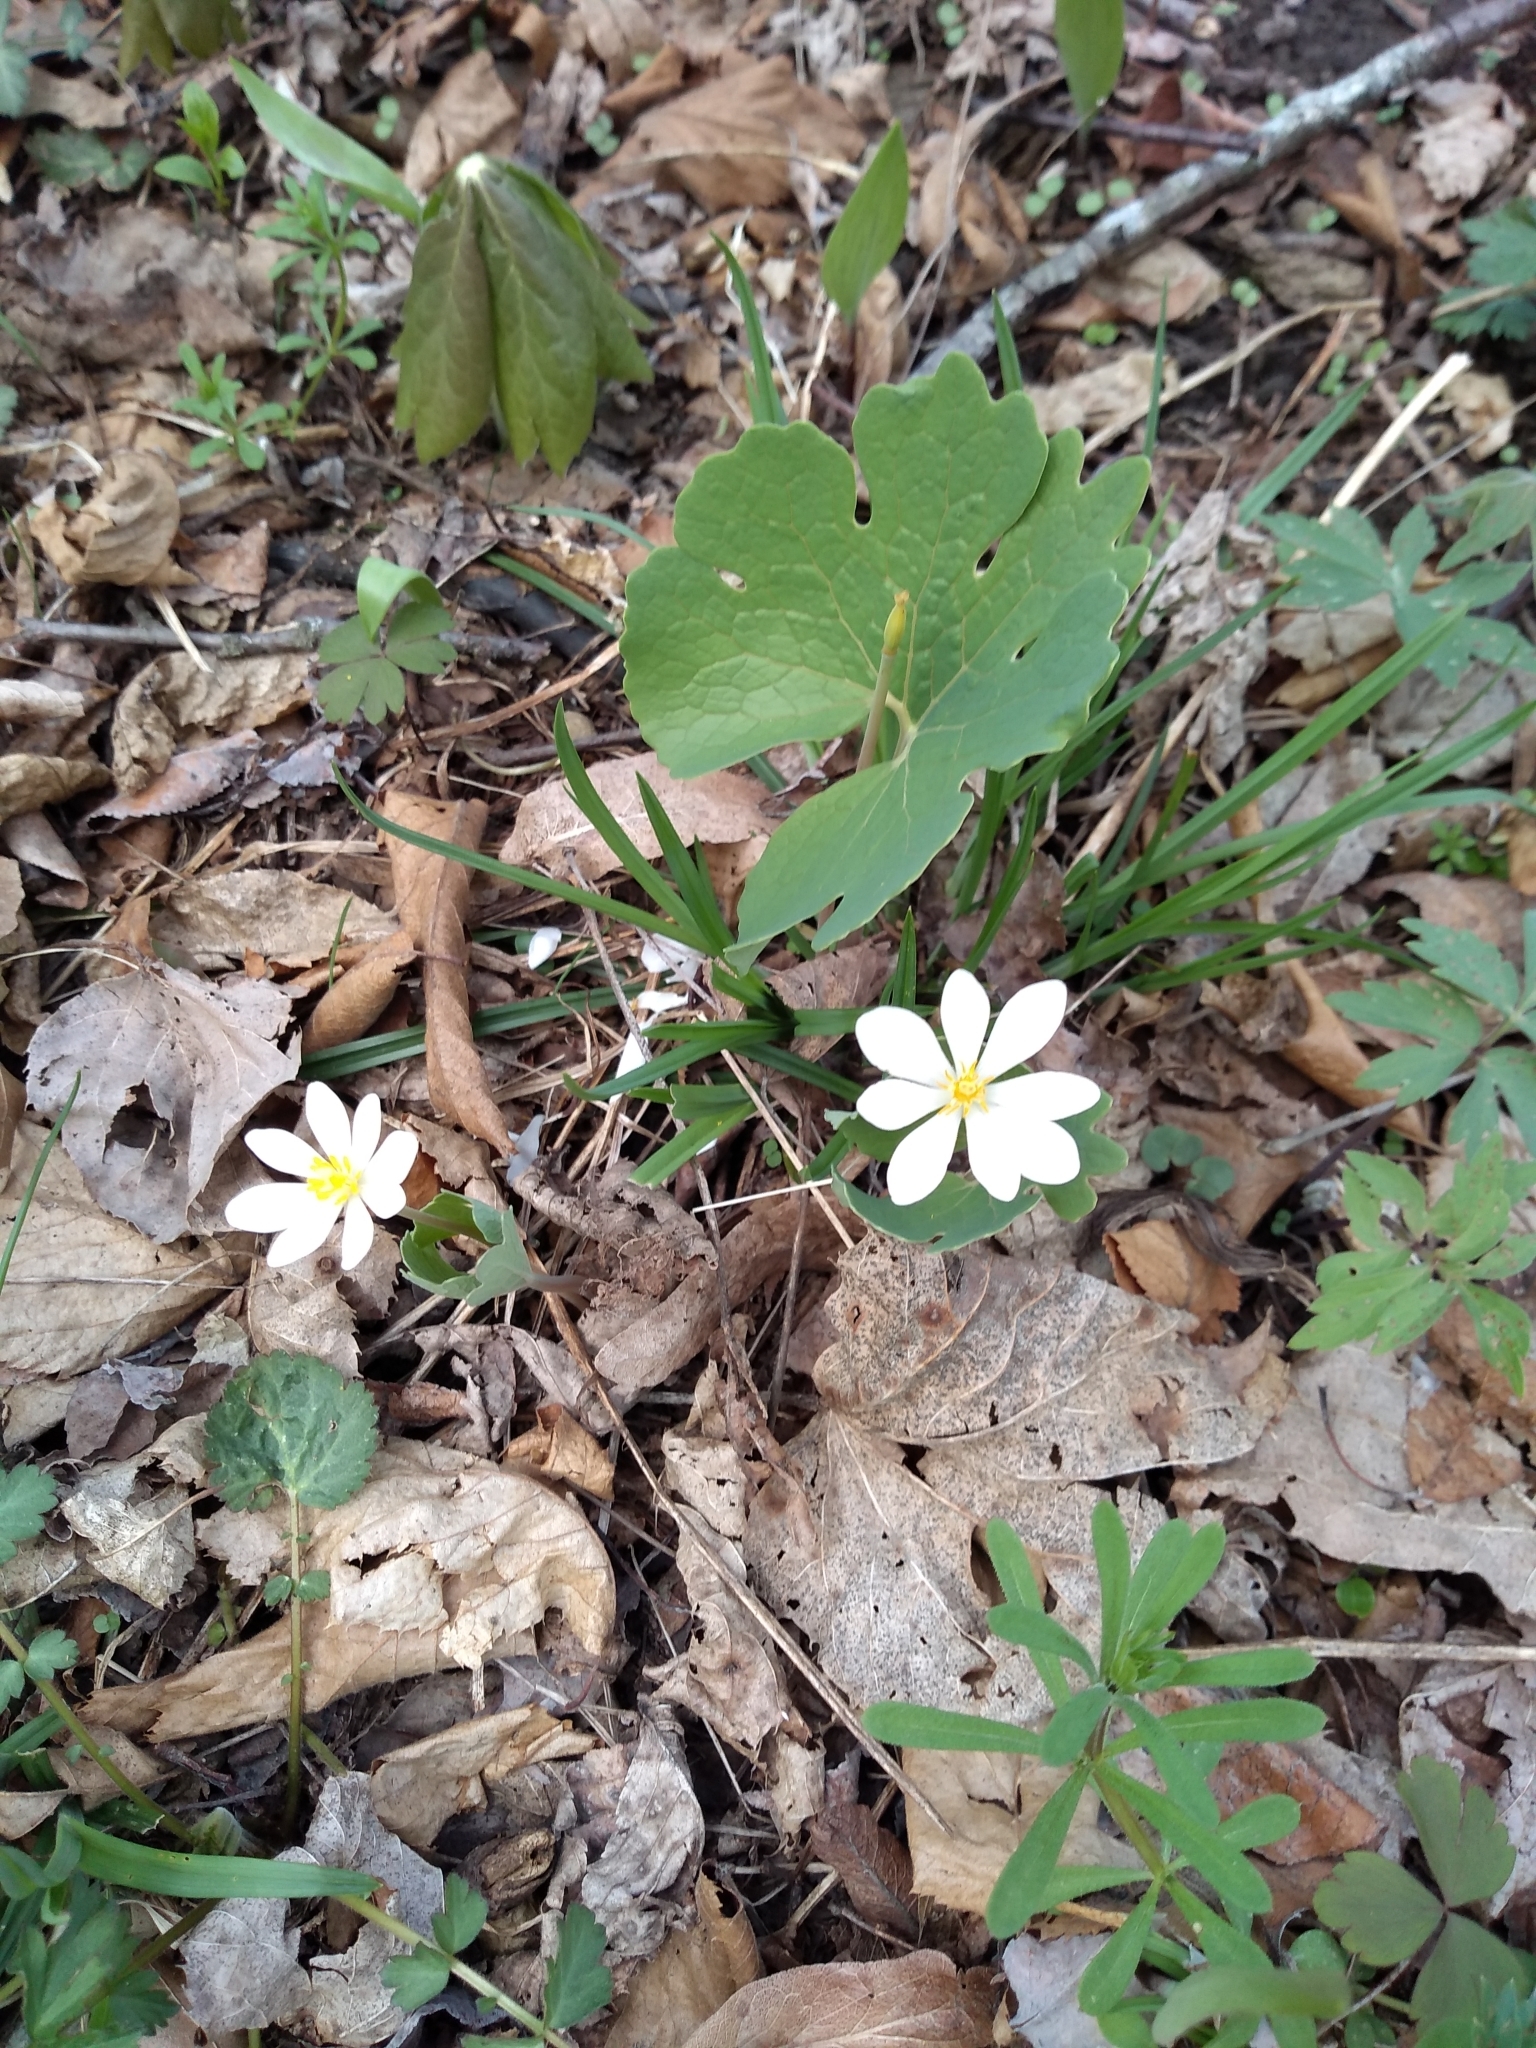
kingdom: Plantae
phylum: Tracheophyta
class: Magnoliopsida
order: Ranunculales
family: Papaveraceae
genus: Sanguinaria
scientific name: Sanguinaria canadensis
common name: Bloodroot
